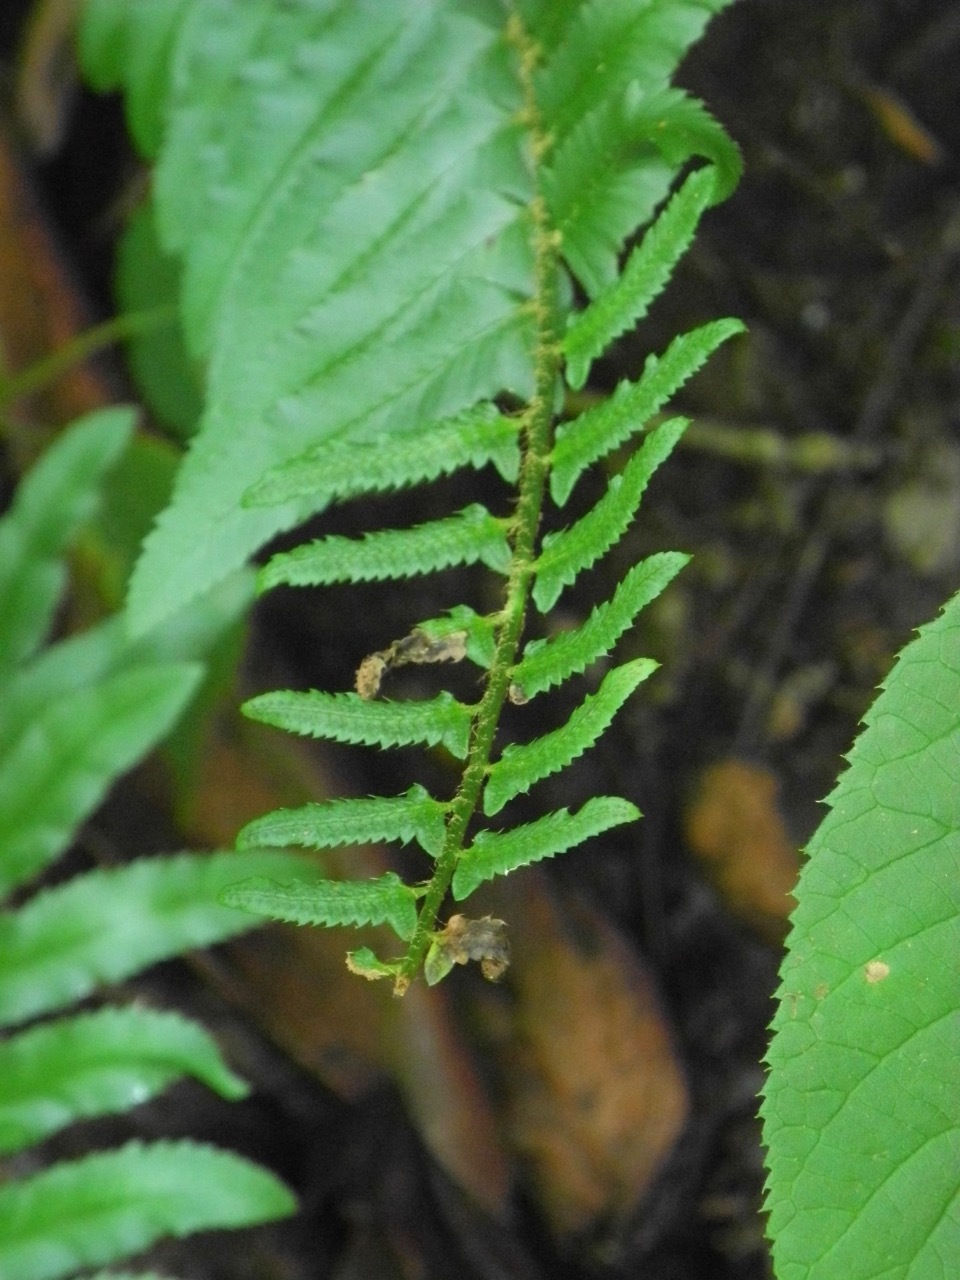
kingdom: Plantae
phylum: Tracheophyta
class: Polypodiopsida
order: Polypodiales
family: Dryopteridaceae
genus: Polystichum
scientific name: Polystichum acrostichoides
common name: Christmas fern
